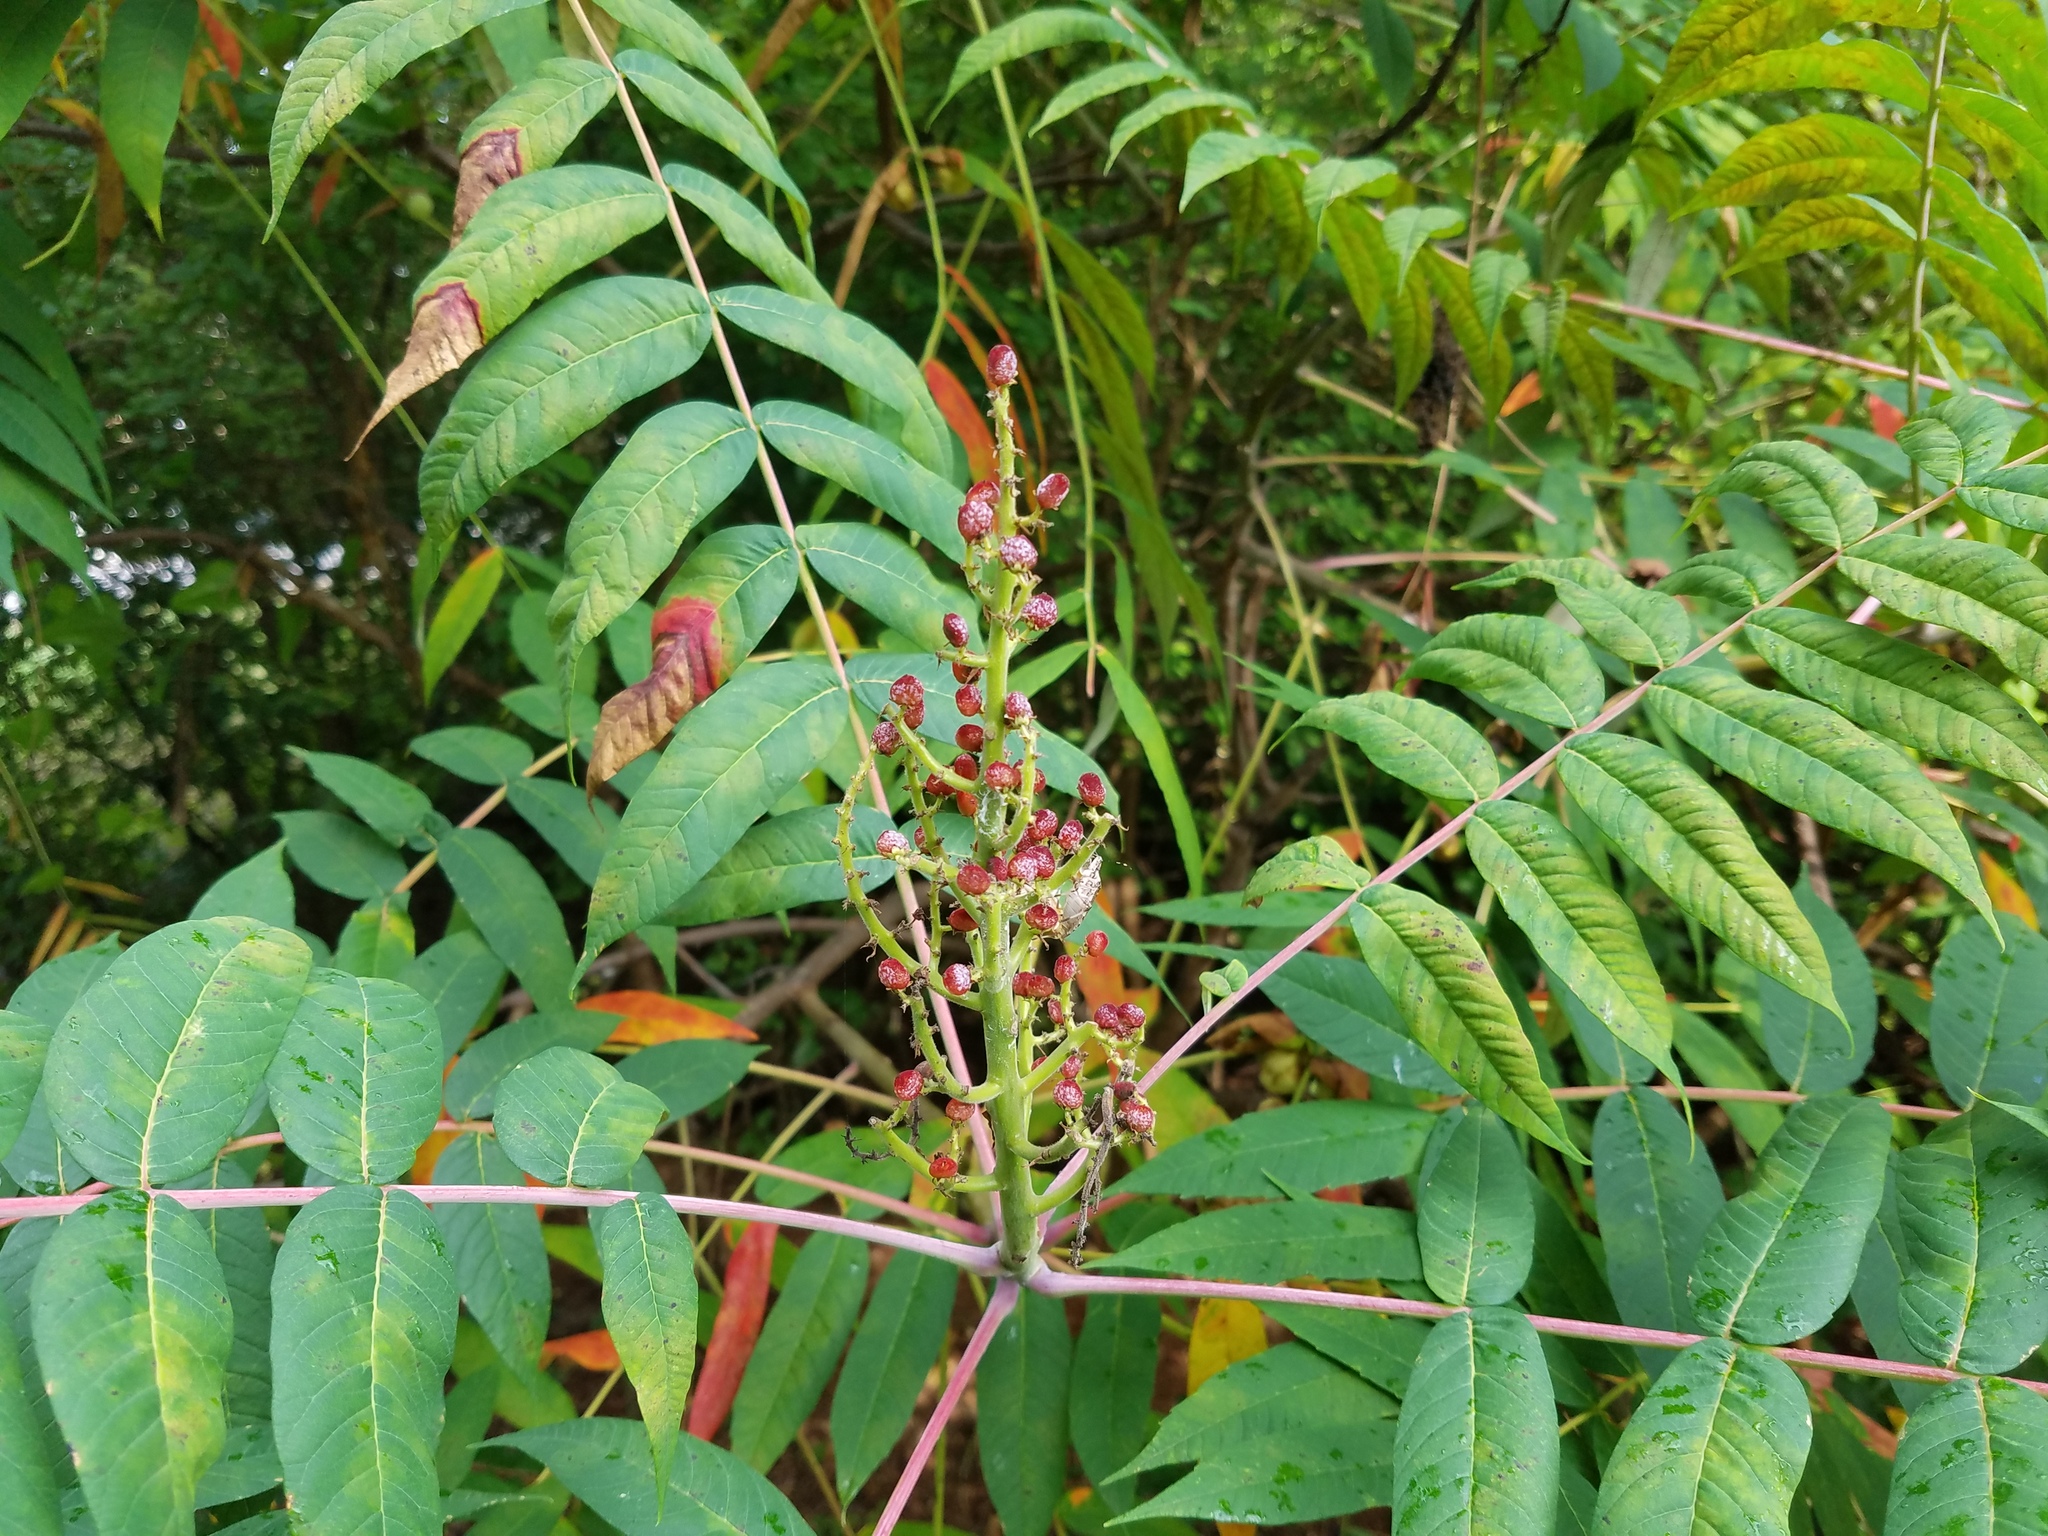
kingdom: Plantae
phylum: Tracheophyta
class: Magnoliopsida
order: Sapindales
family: Anacardiaceae
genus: Rhus
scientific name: Rhus glabra
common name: Scarlet sumac
